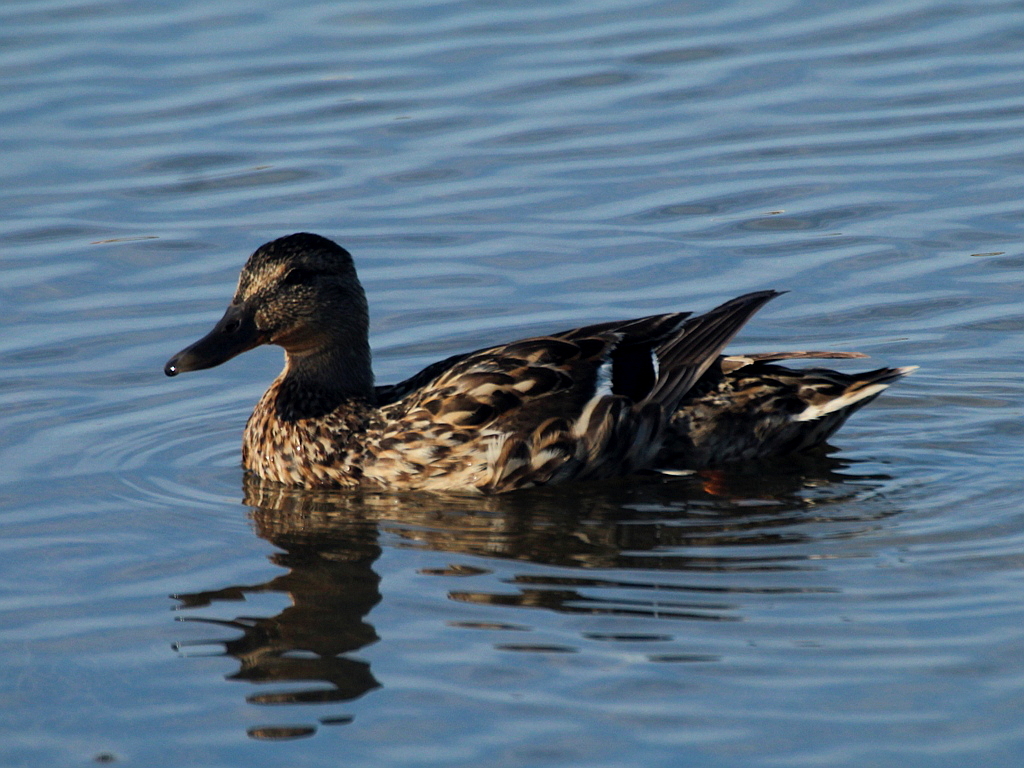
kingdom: Animalia
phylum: Chordata
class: Aves
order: Anseriformes
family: Anatidae
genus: Anas
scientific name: Anas platyrhynchos
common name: Mallard
